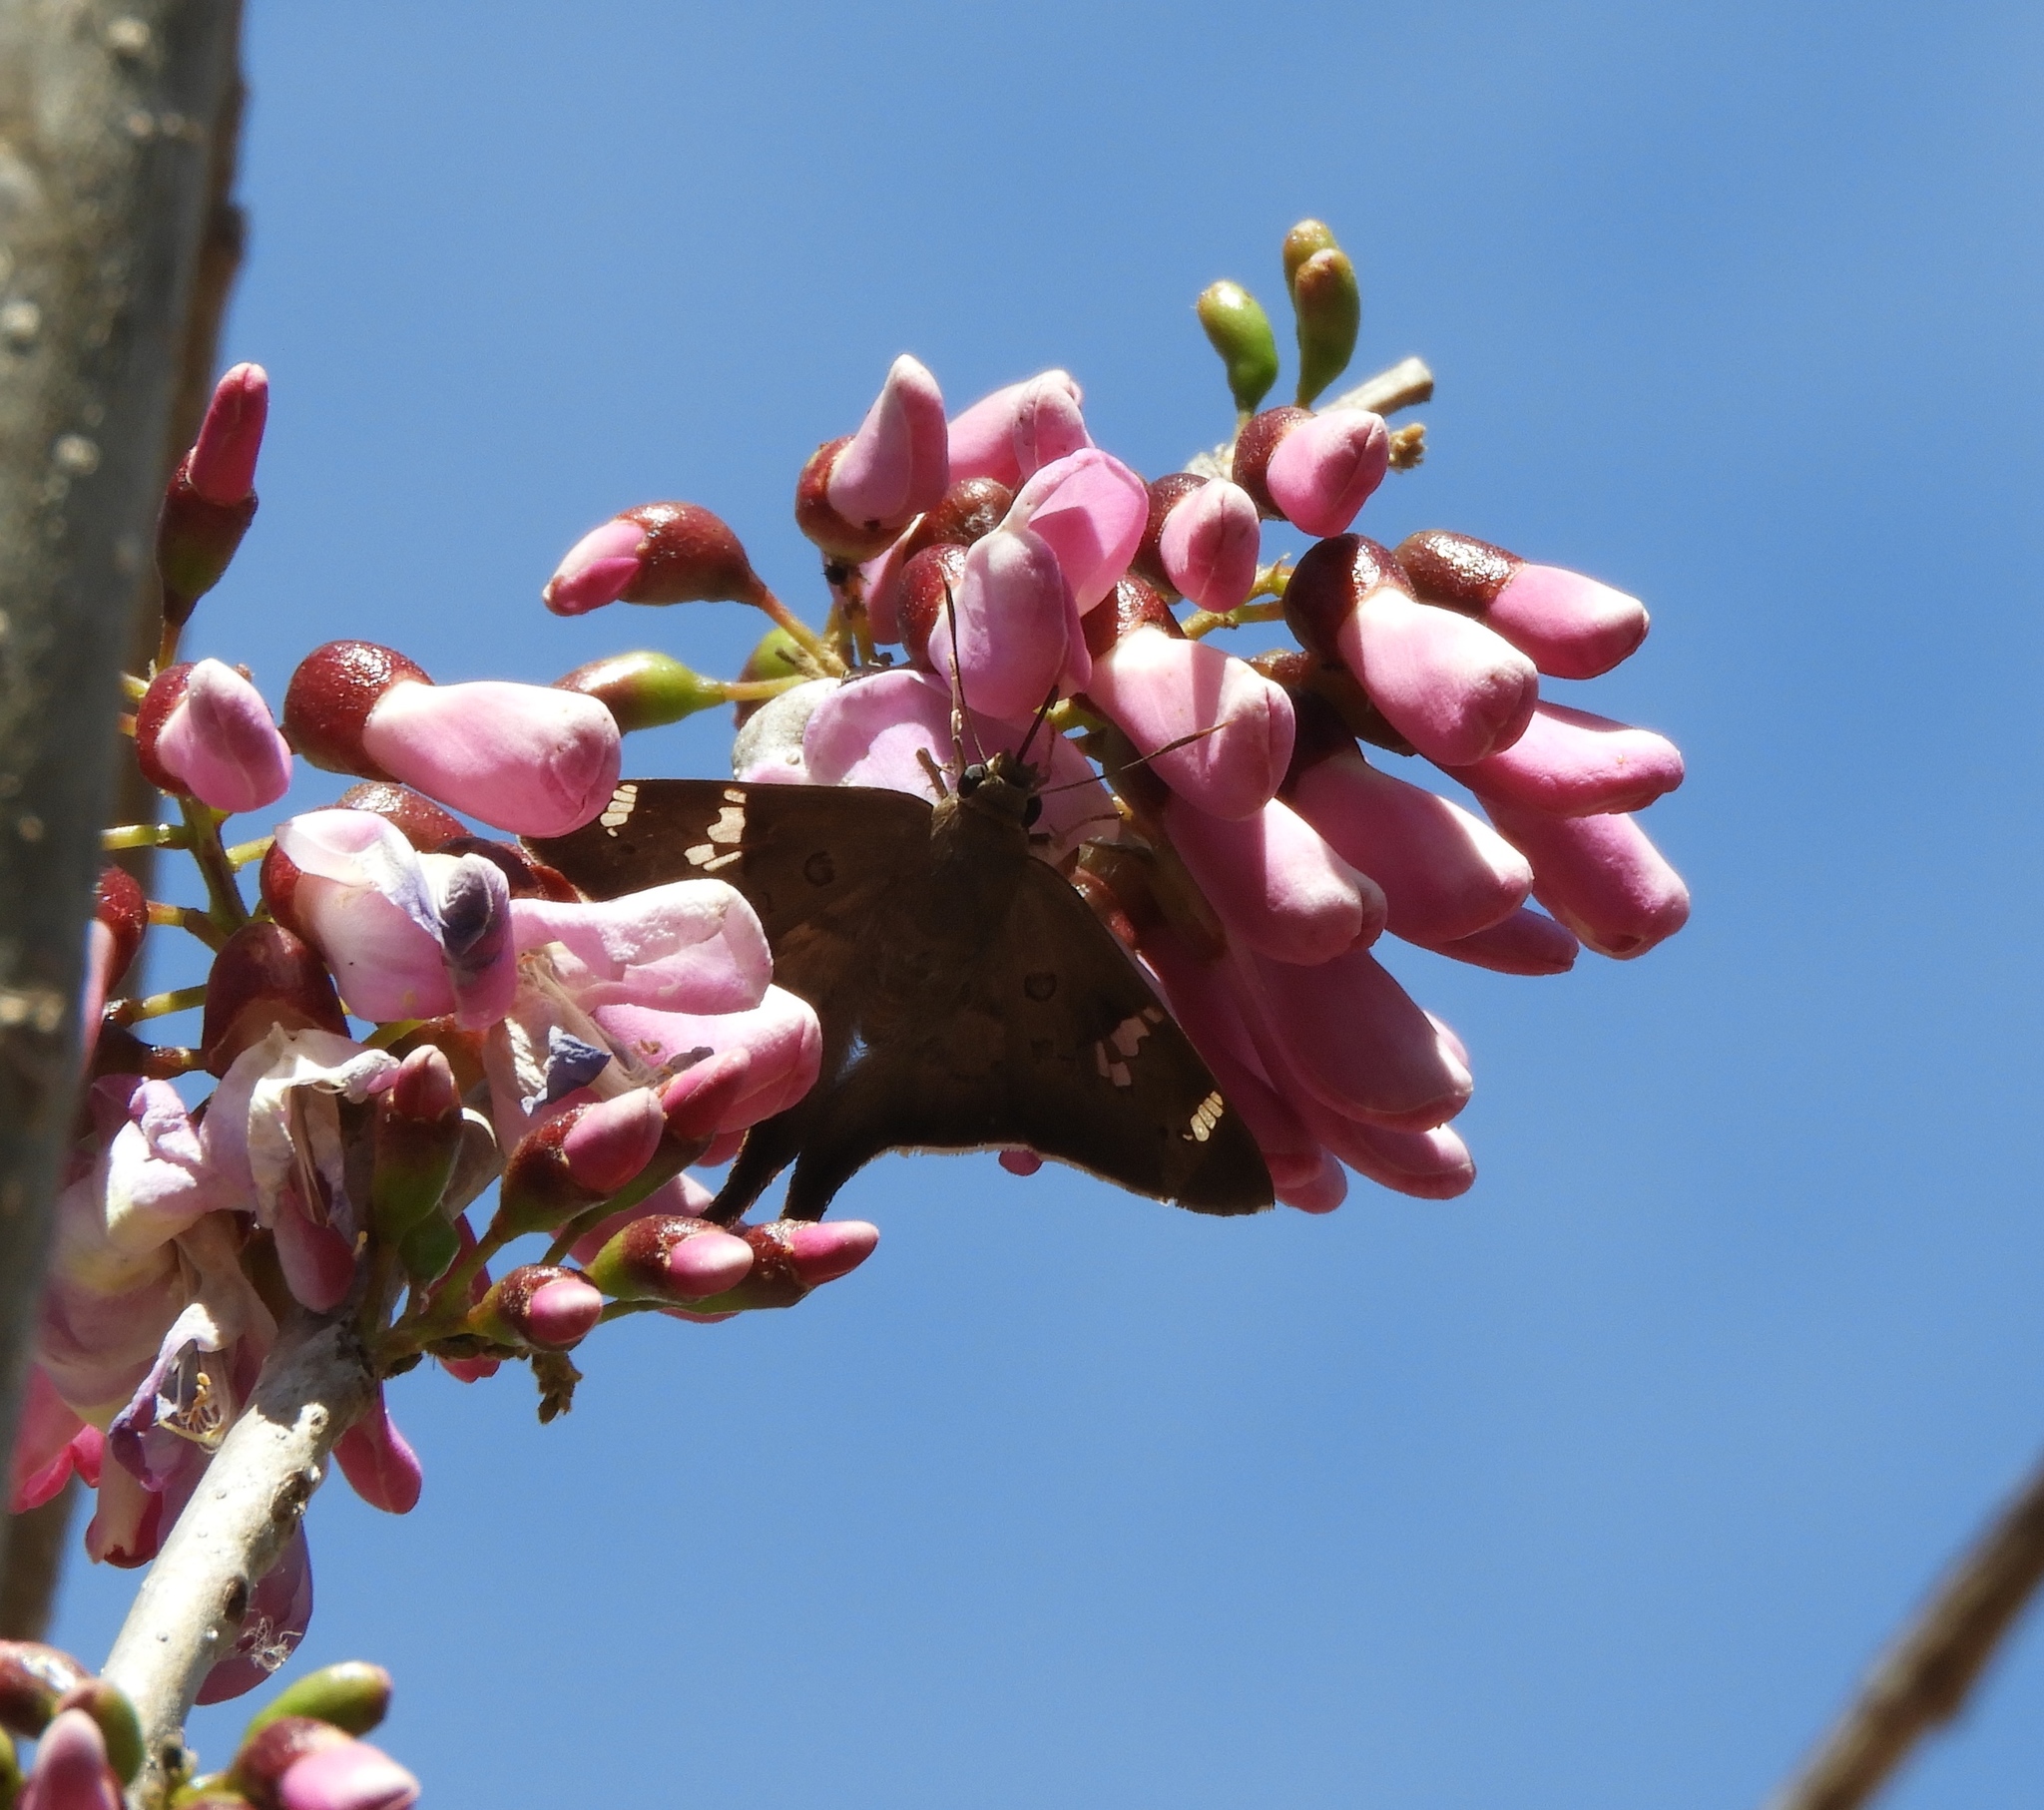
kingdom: Plantae
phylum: Tracheophyta
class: Magnoliopsida
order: Fabales
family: Fabaceae
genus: Gliricidia
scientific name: Gliricidia sepium
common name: Quickstick
